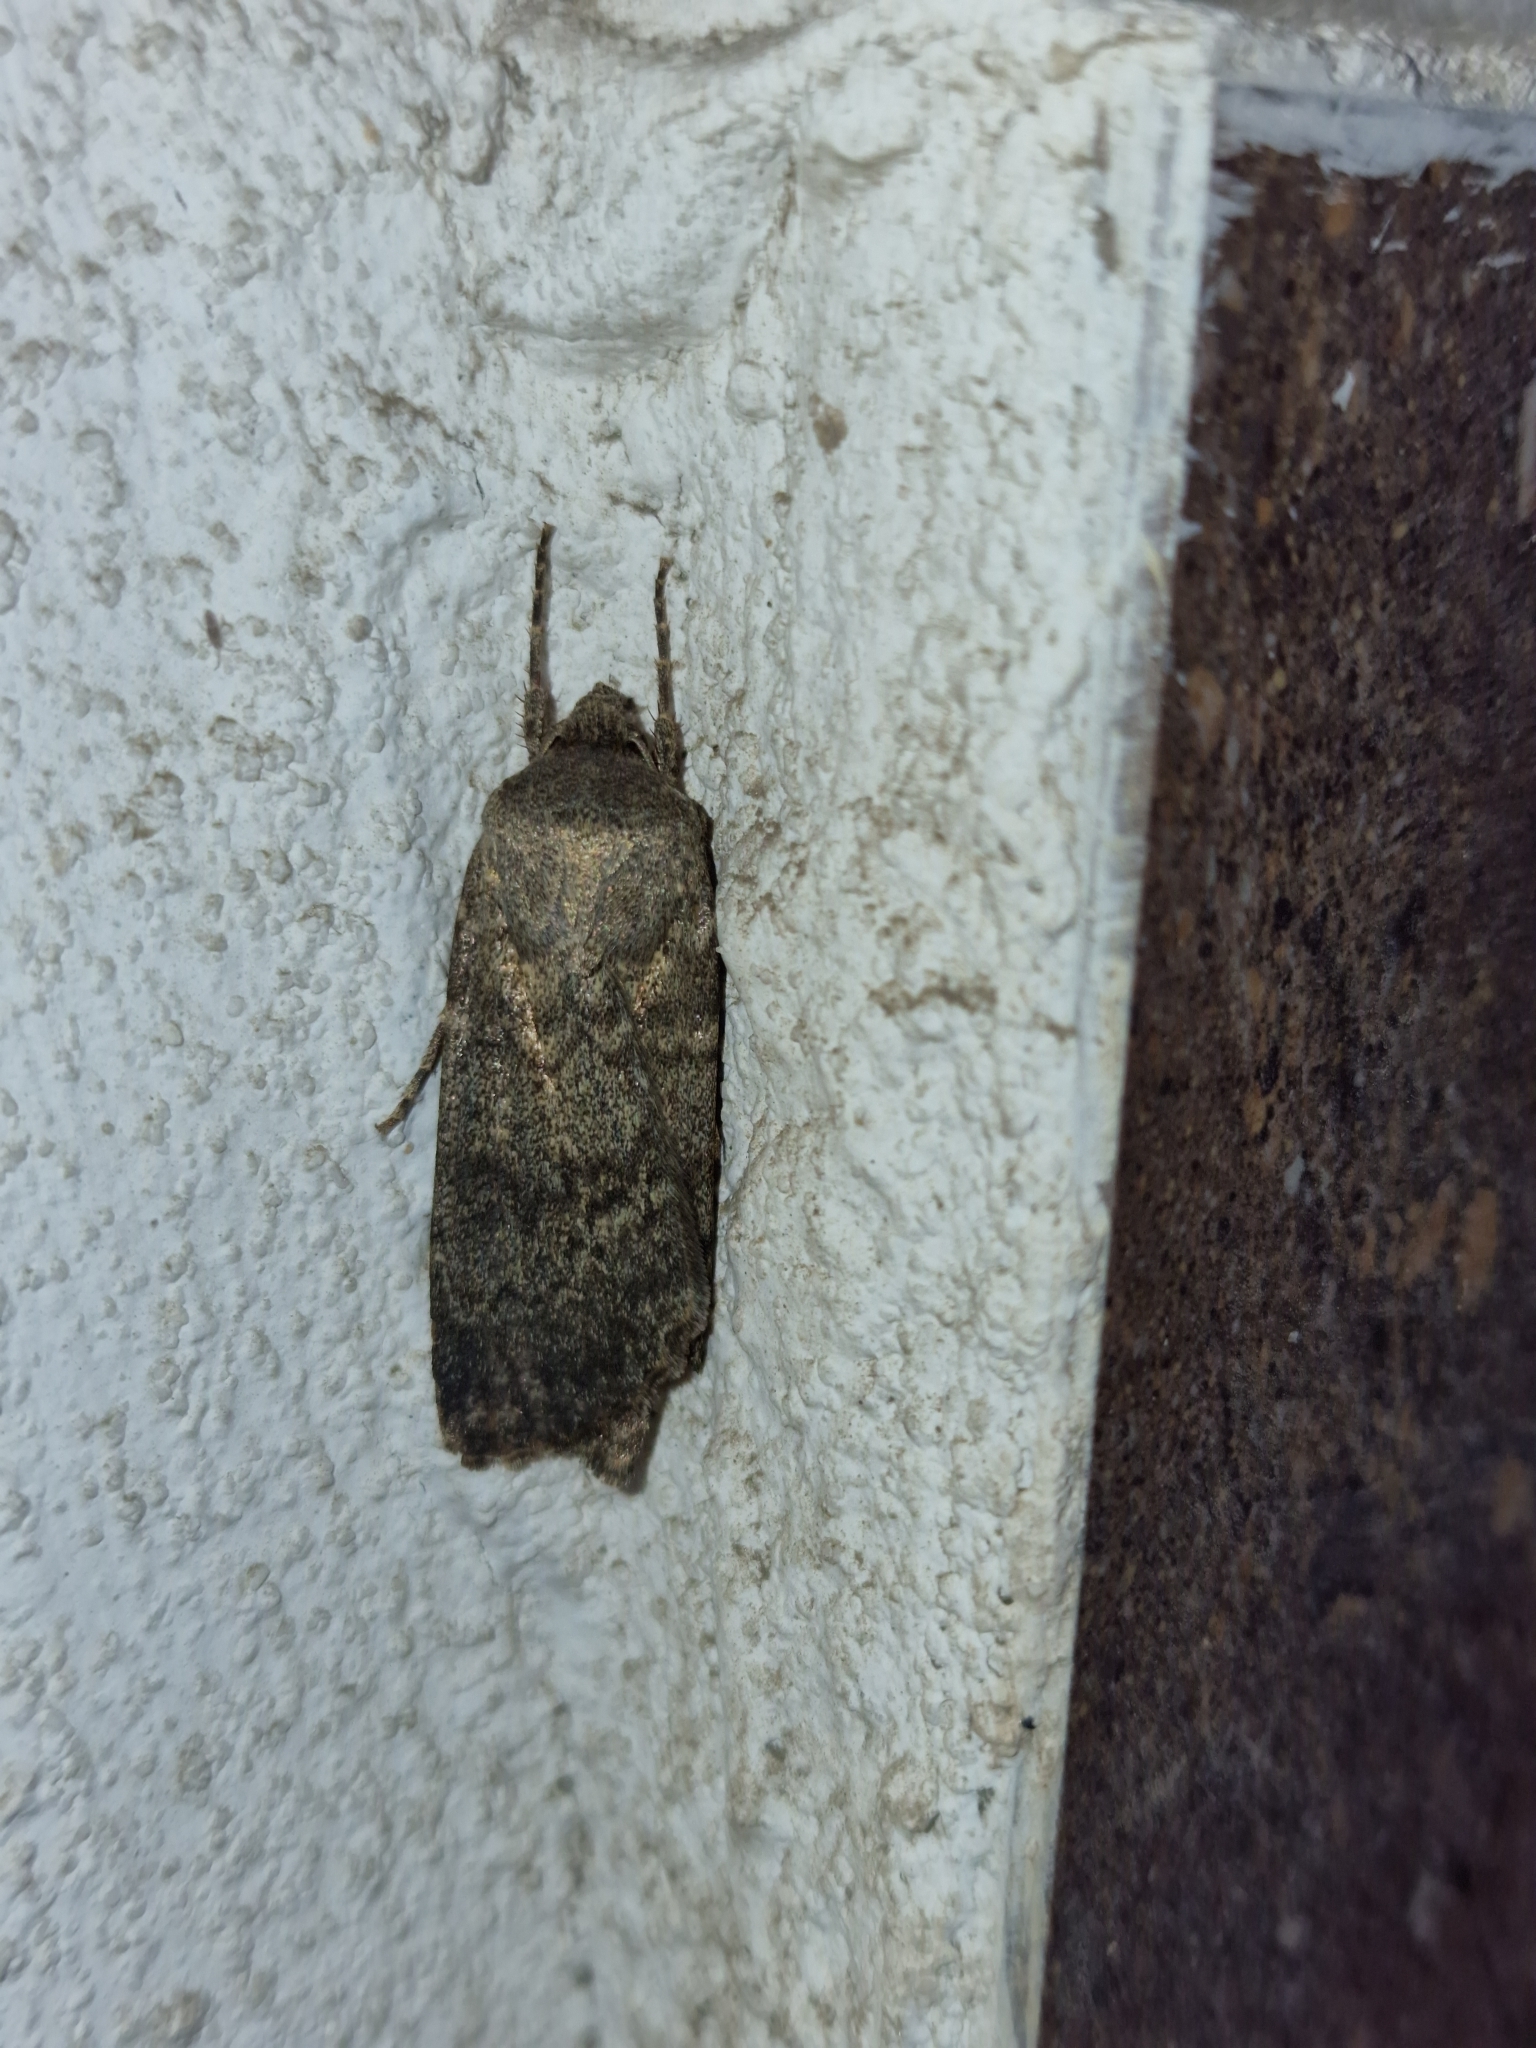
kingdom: Animalia
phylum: Arthropoda
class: Insecta
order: Lepidoptera
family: Noctuidae
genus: Rhyacia
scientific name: Rhyacia simulans
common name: Dotted rustic
